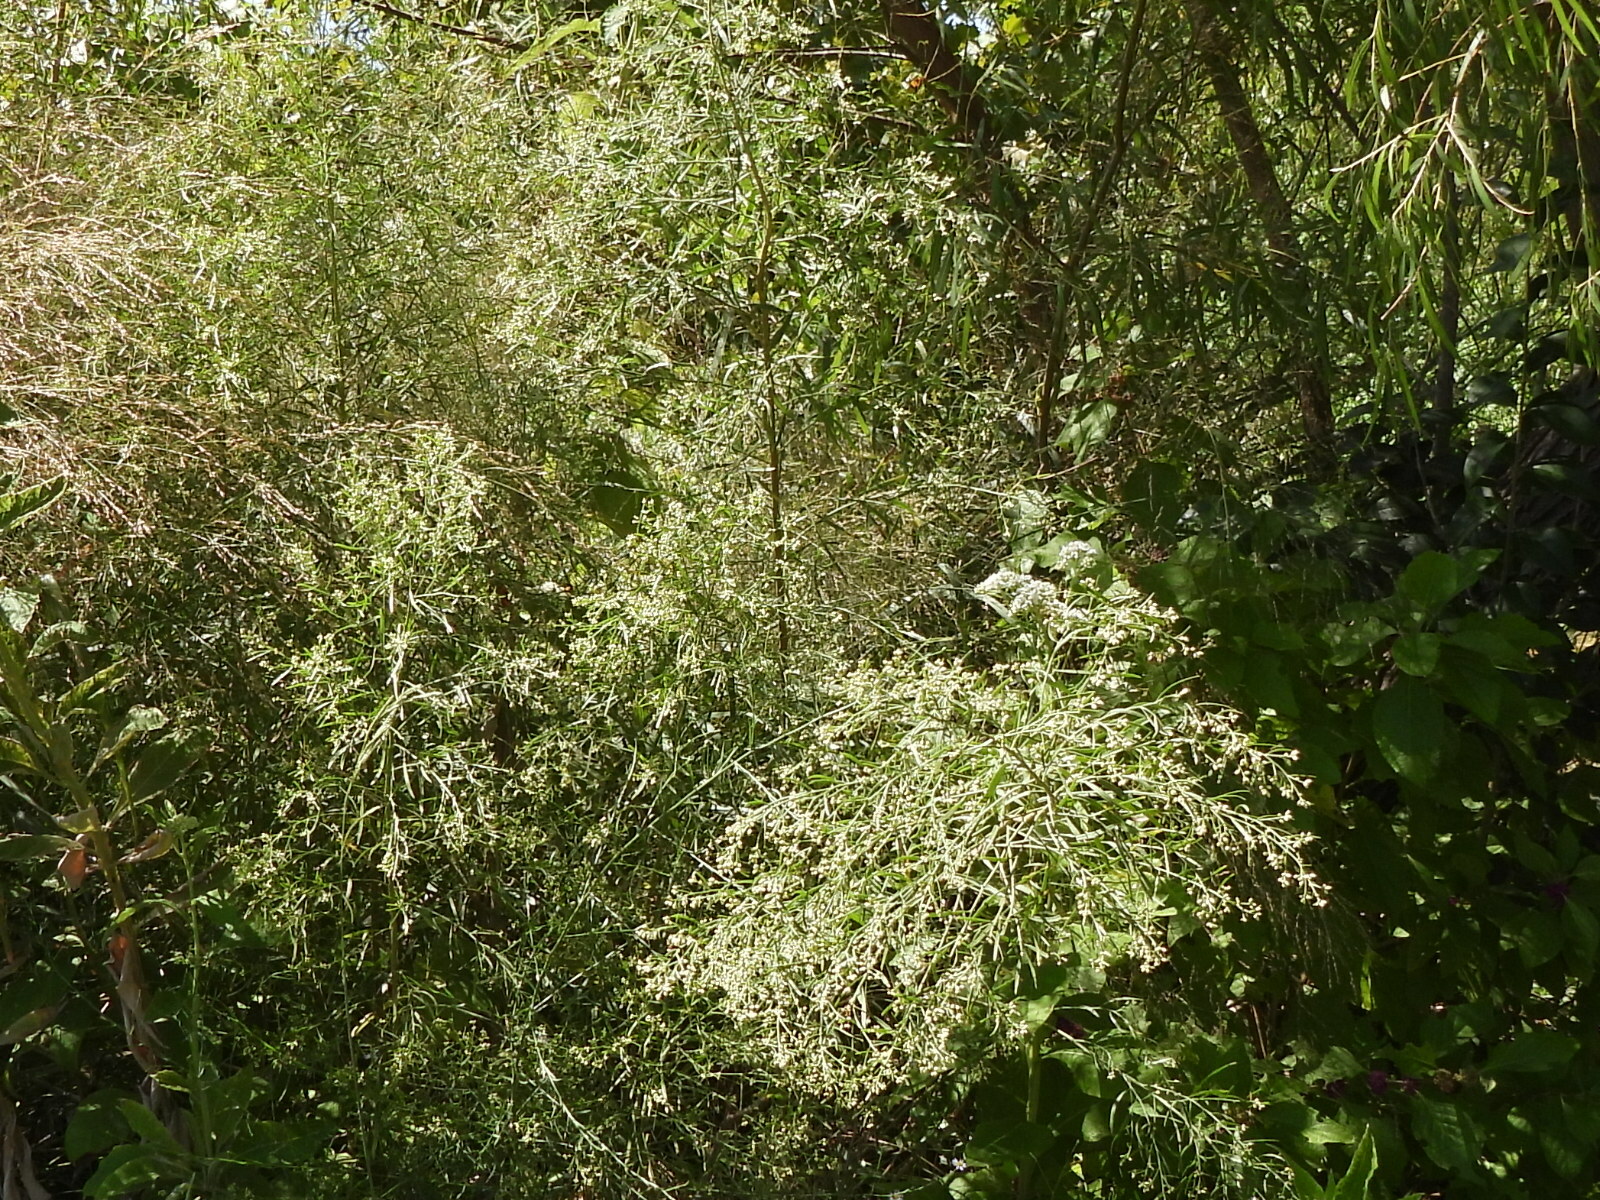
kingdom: Plantae
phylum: Tracheophyta
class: Magnoliopsida
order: Asterales
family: Asteraceae
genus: Baccharis
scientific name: Baccharis neglecta
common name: Roosevelt-weed
